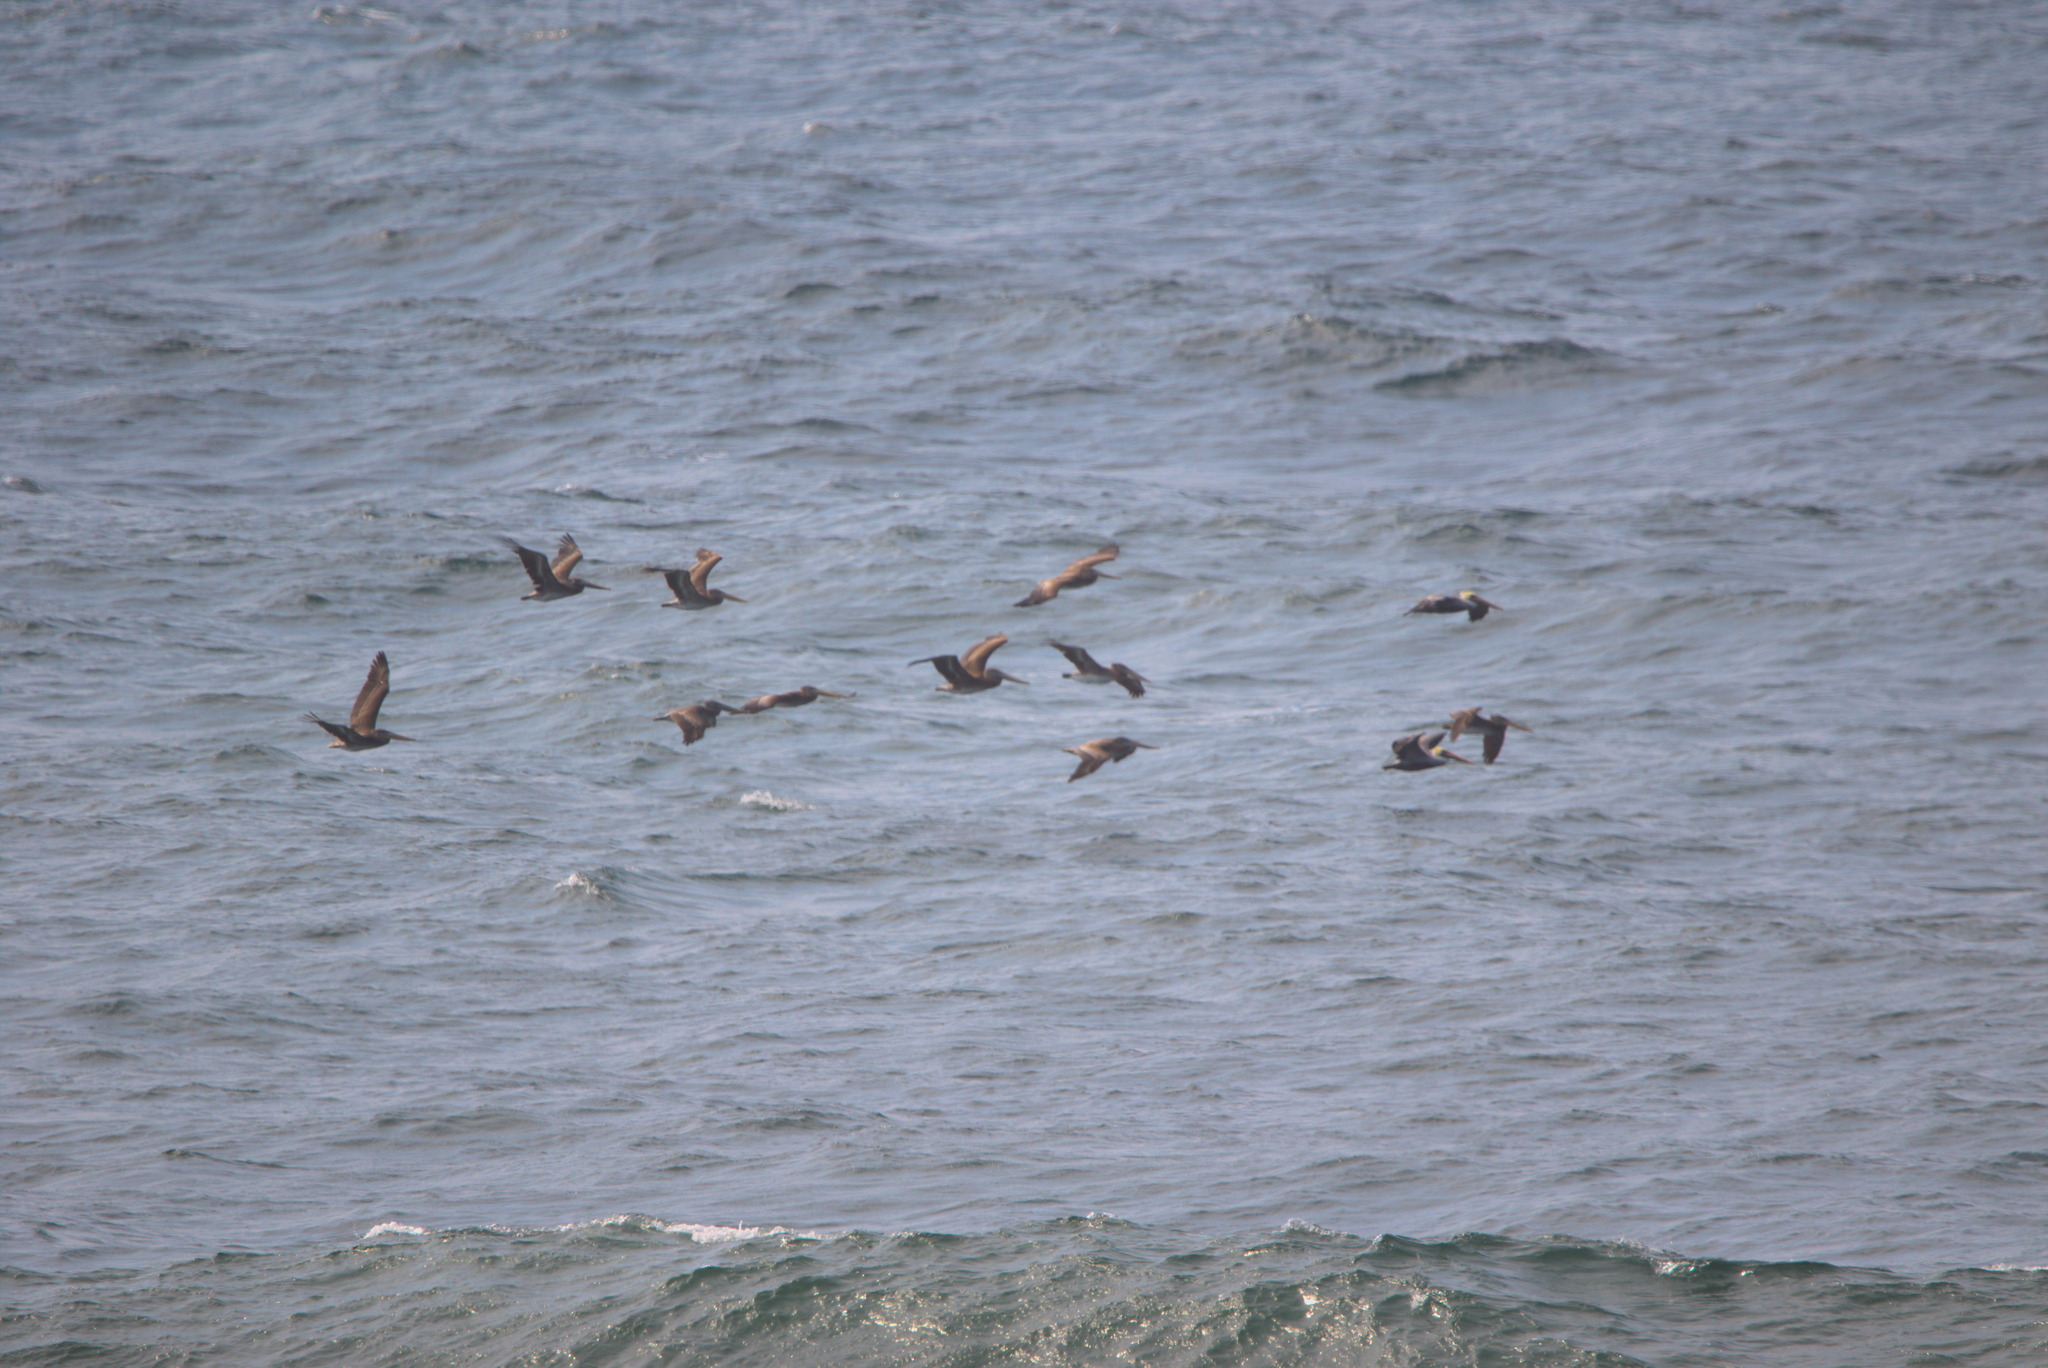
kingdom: Animalia
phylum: Chordata
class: Aves
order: Pelecaniformes
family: Pelecanidae
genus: Pelecanus
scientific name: Pelecanus occidentalis
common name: Brown pelican
